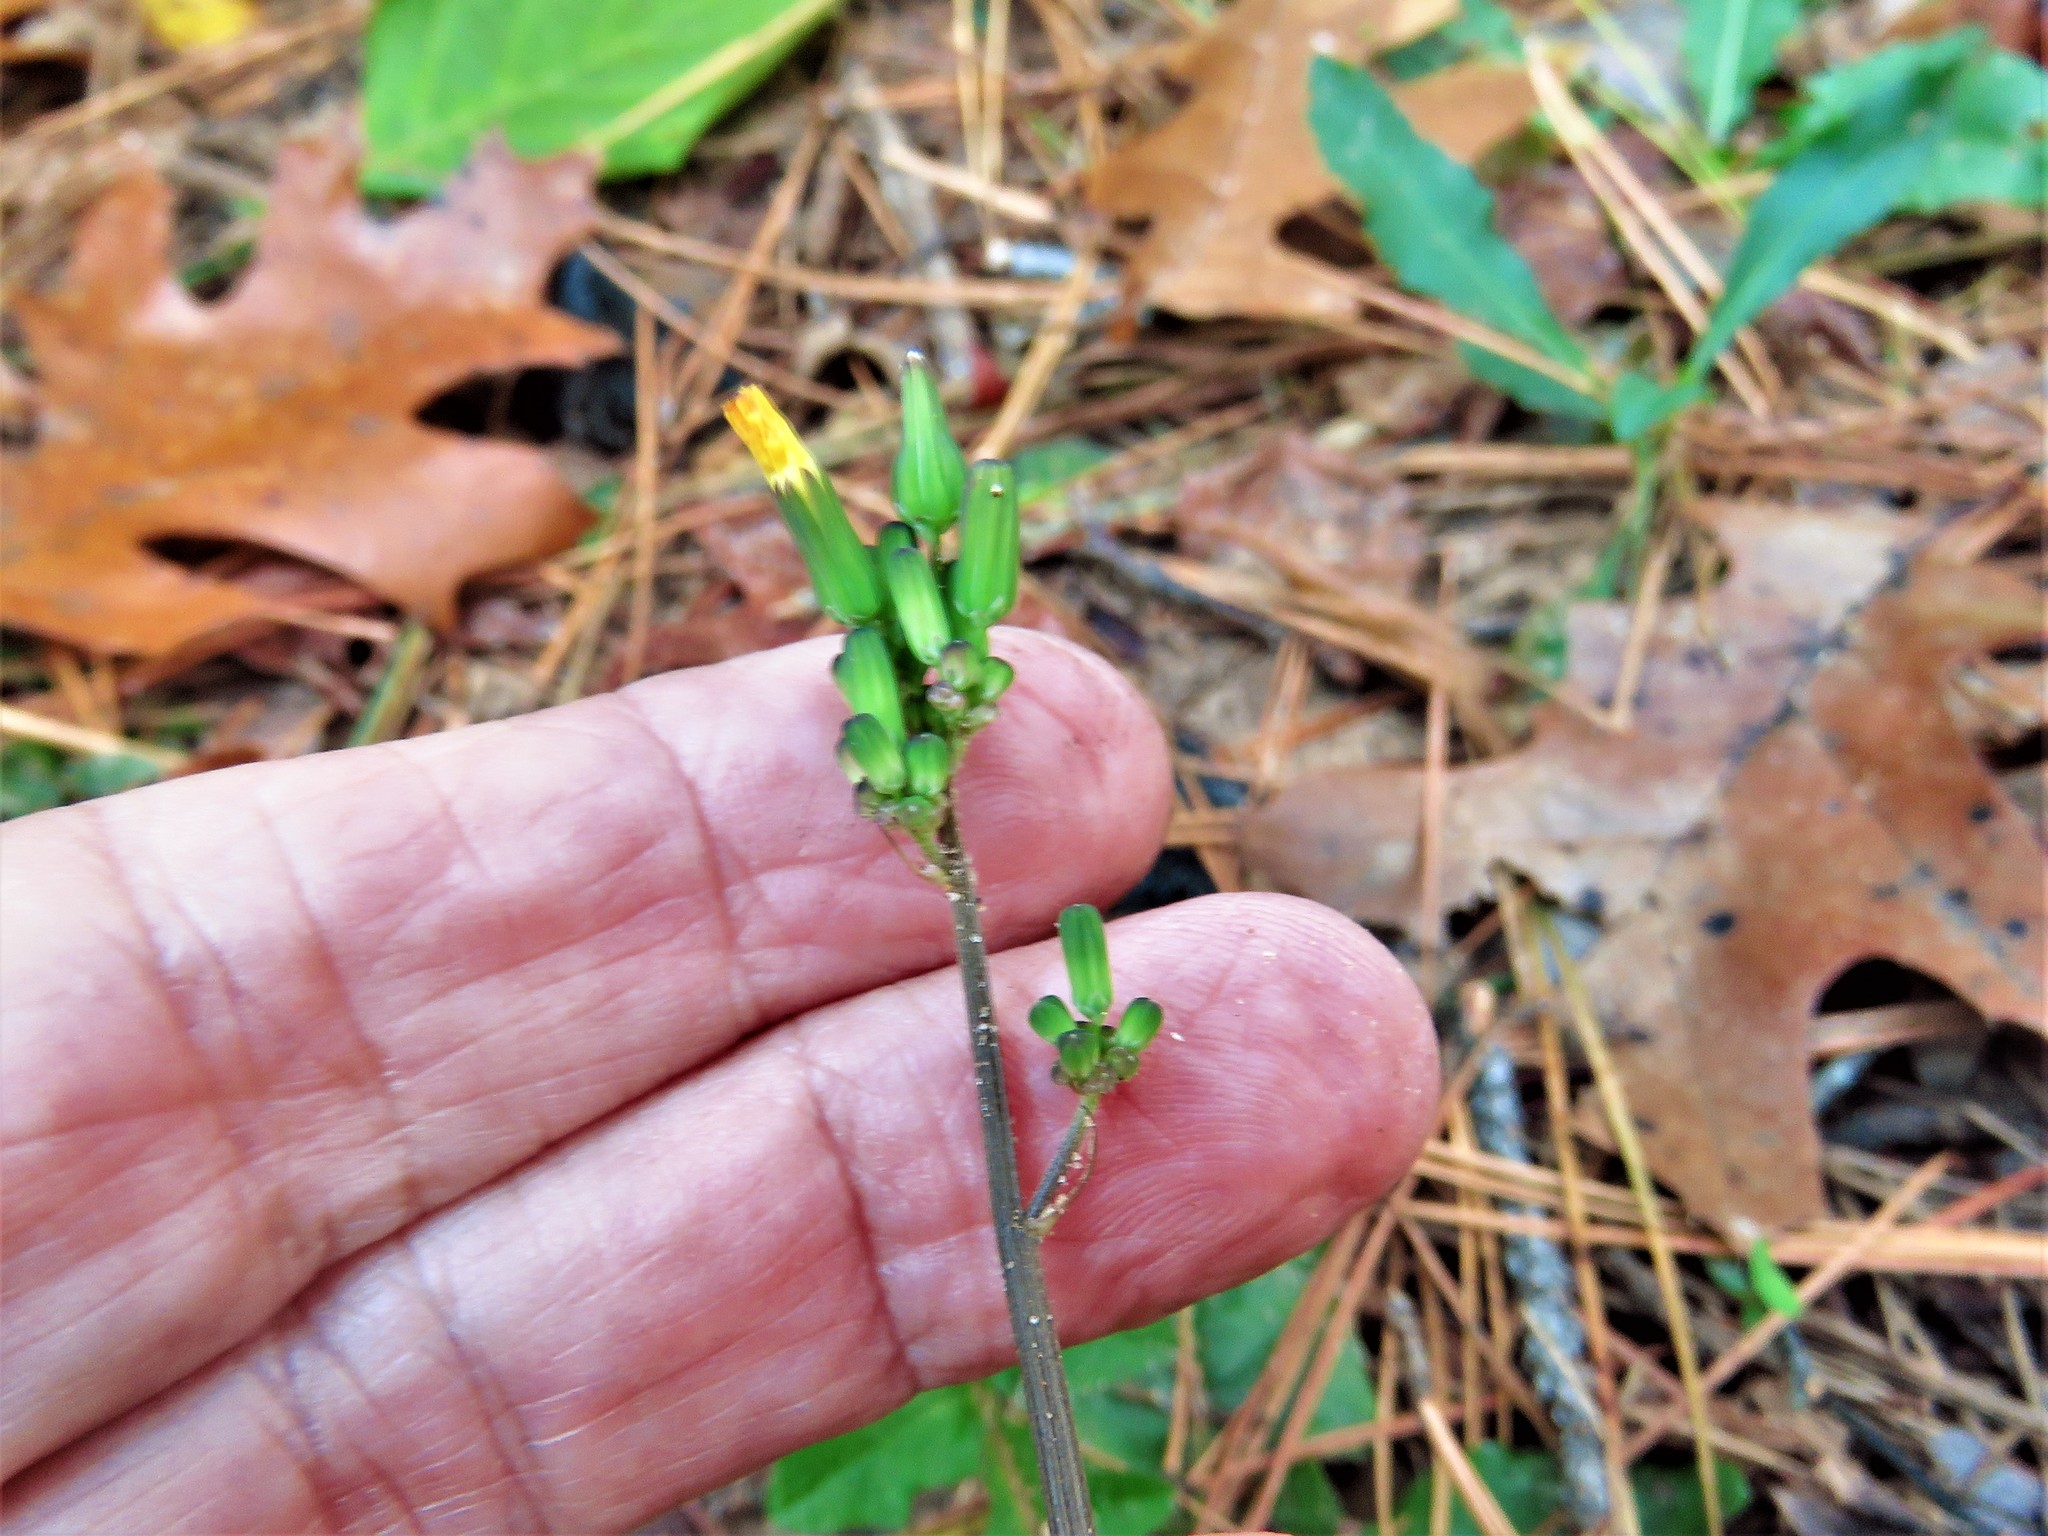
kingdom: Plantae
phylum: Tracheophyta
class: Magnoliopsida
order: Asterales
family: Asteraceae
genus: Youngia
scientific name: Youngia japonica
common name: Oriental false hawksbeard
